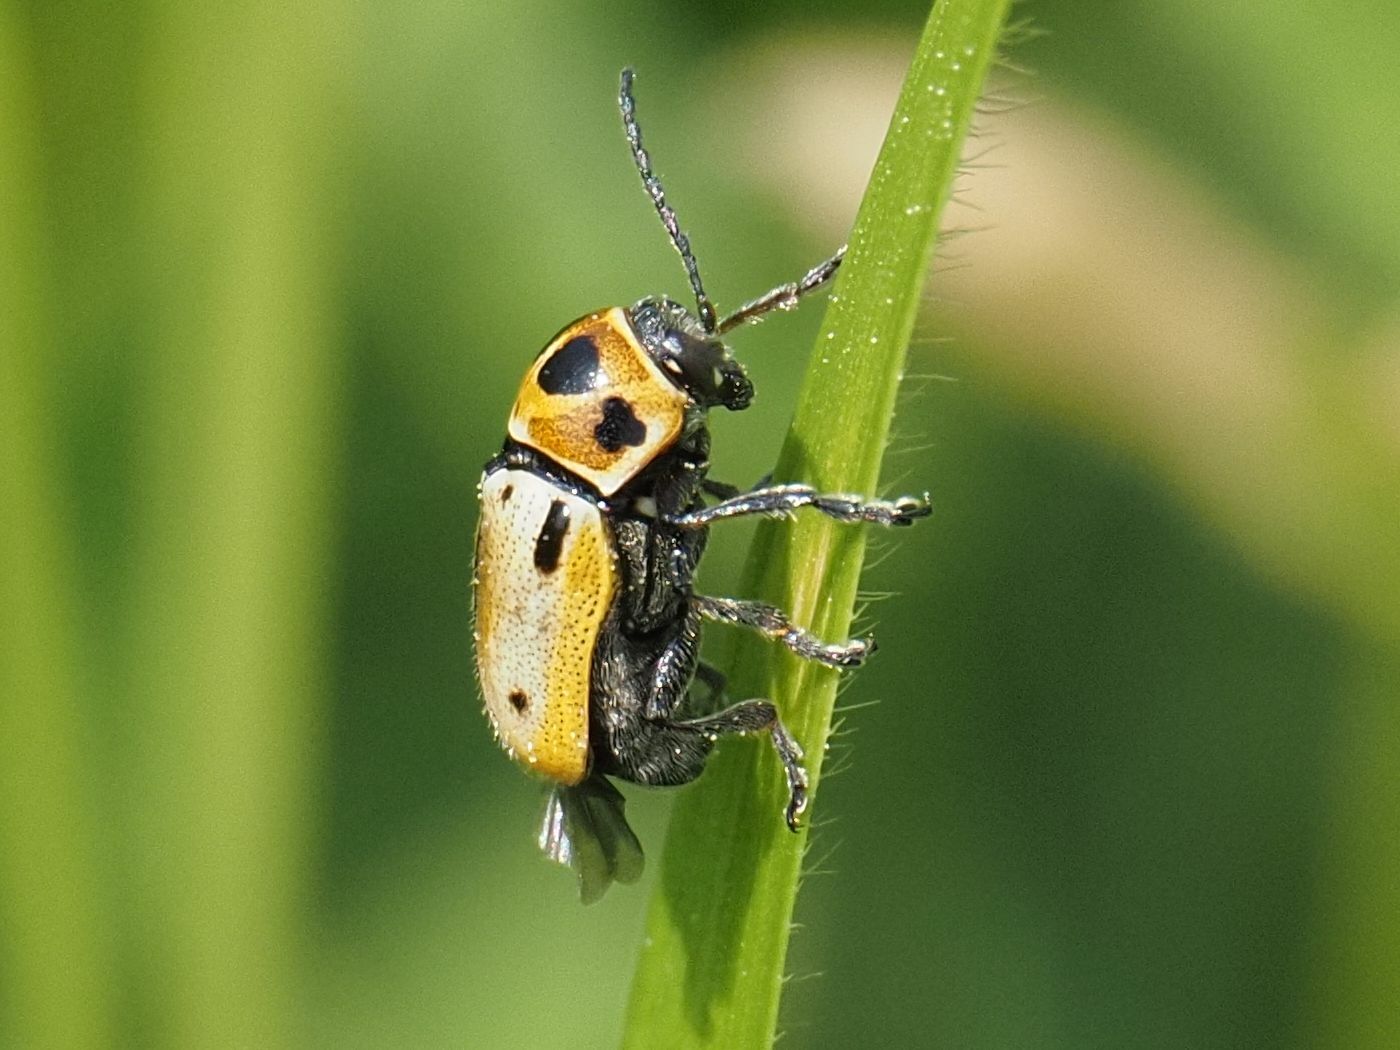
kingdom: Animalia
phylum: Arthropoda
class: Insecta
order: Coleoptera
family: Chrysomelidae
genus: Cryptocephalus
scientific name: Cryptocephalus quatuordecimmaculatus
